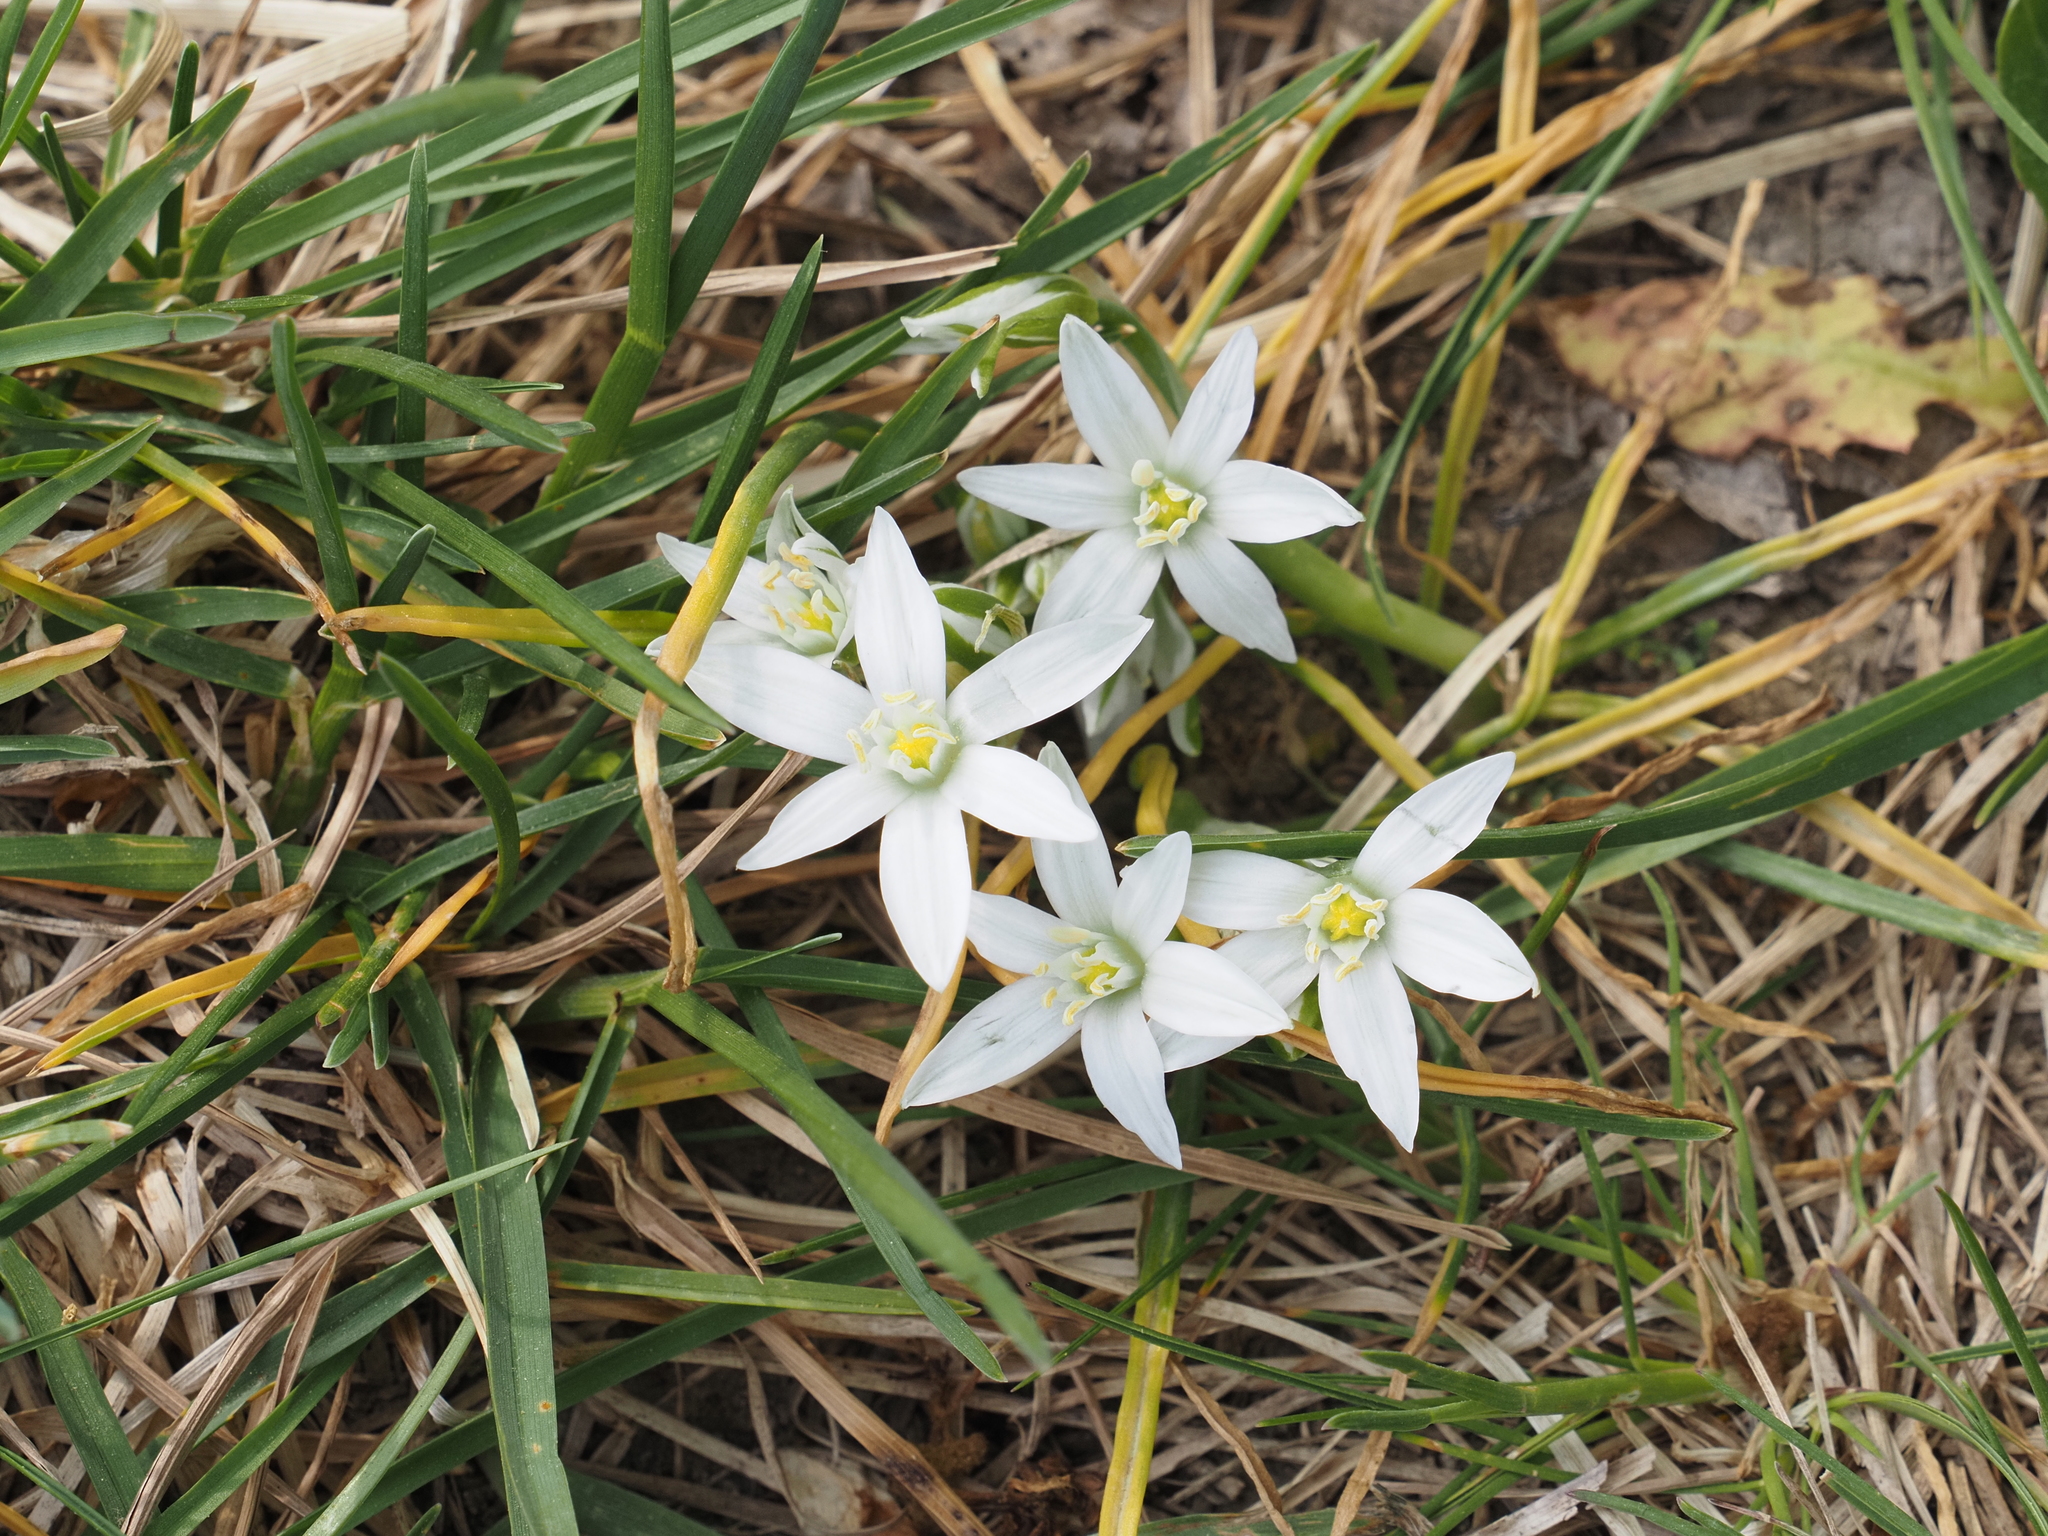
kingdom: Plantae
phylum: Tracheophyta
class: Liliopsida
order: Asparagales
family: Asparagaceae
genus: Ornithogalum
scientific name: Ornithogalum umbellatum
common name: Garden star-of-bethlehem
